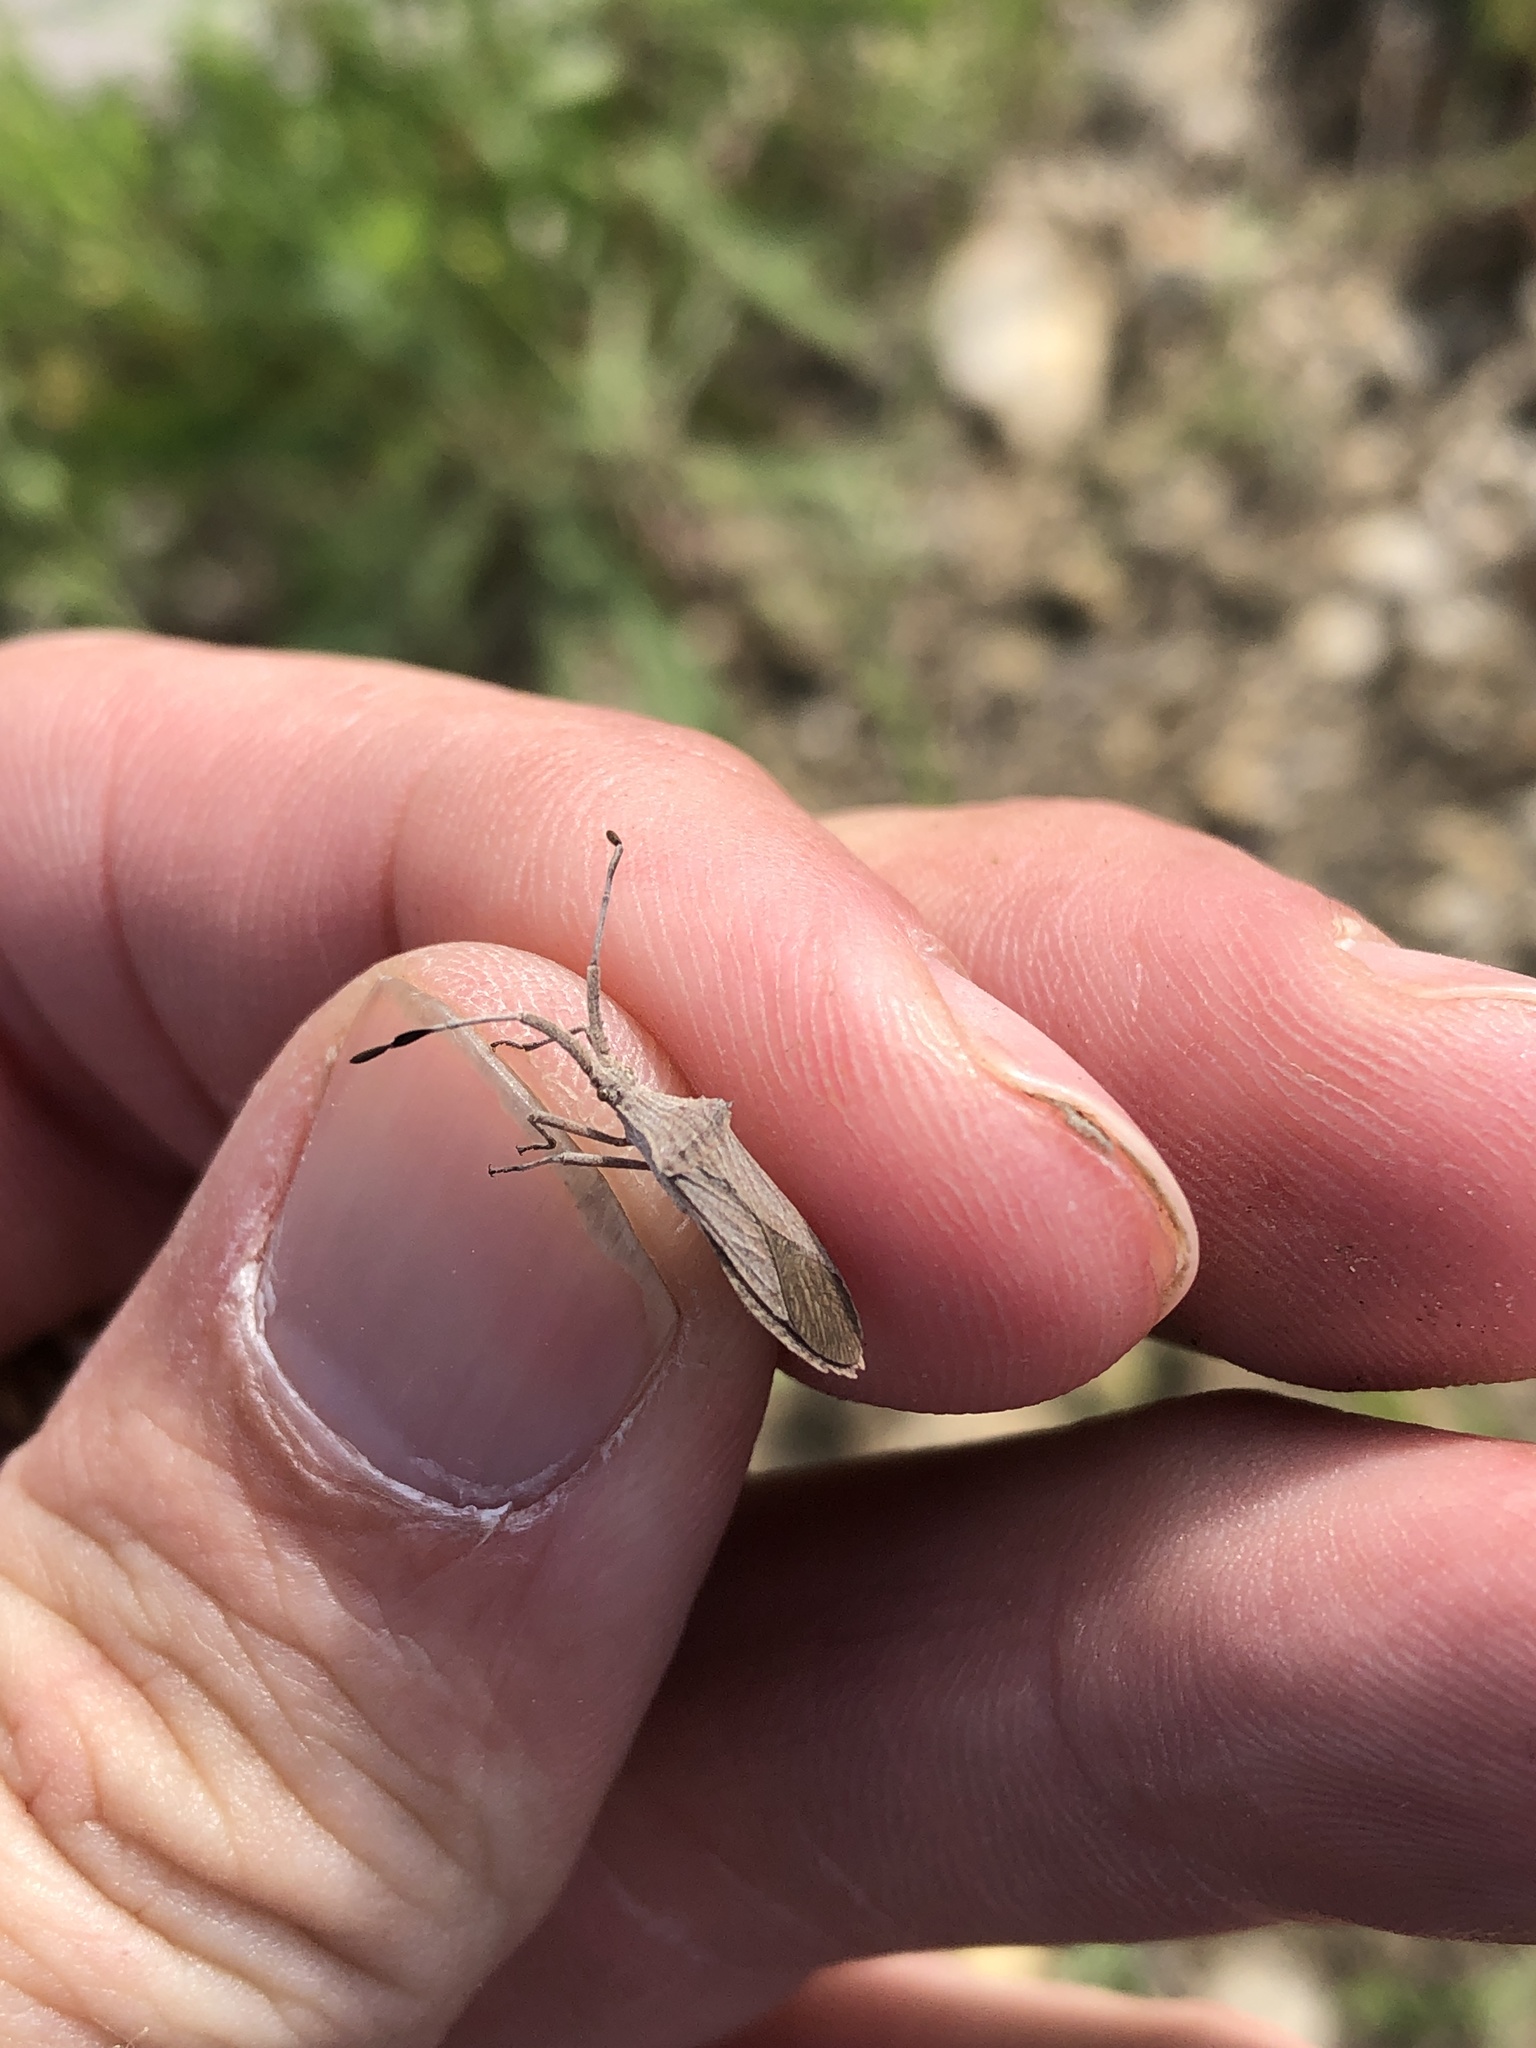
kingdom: Animalia
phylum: Arthropoda
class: Insecta
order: Hemiptera
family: Coreidae
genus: Chariesterus
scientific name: Chariesterus antennator
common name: Flat horned coreid
